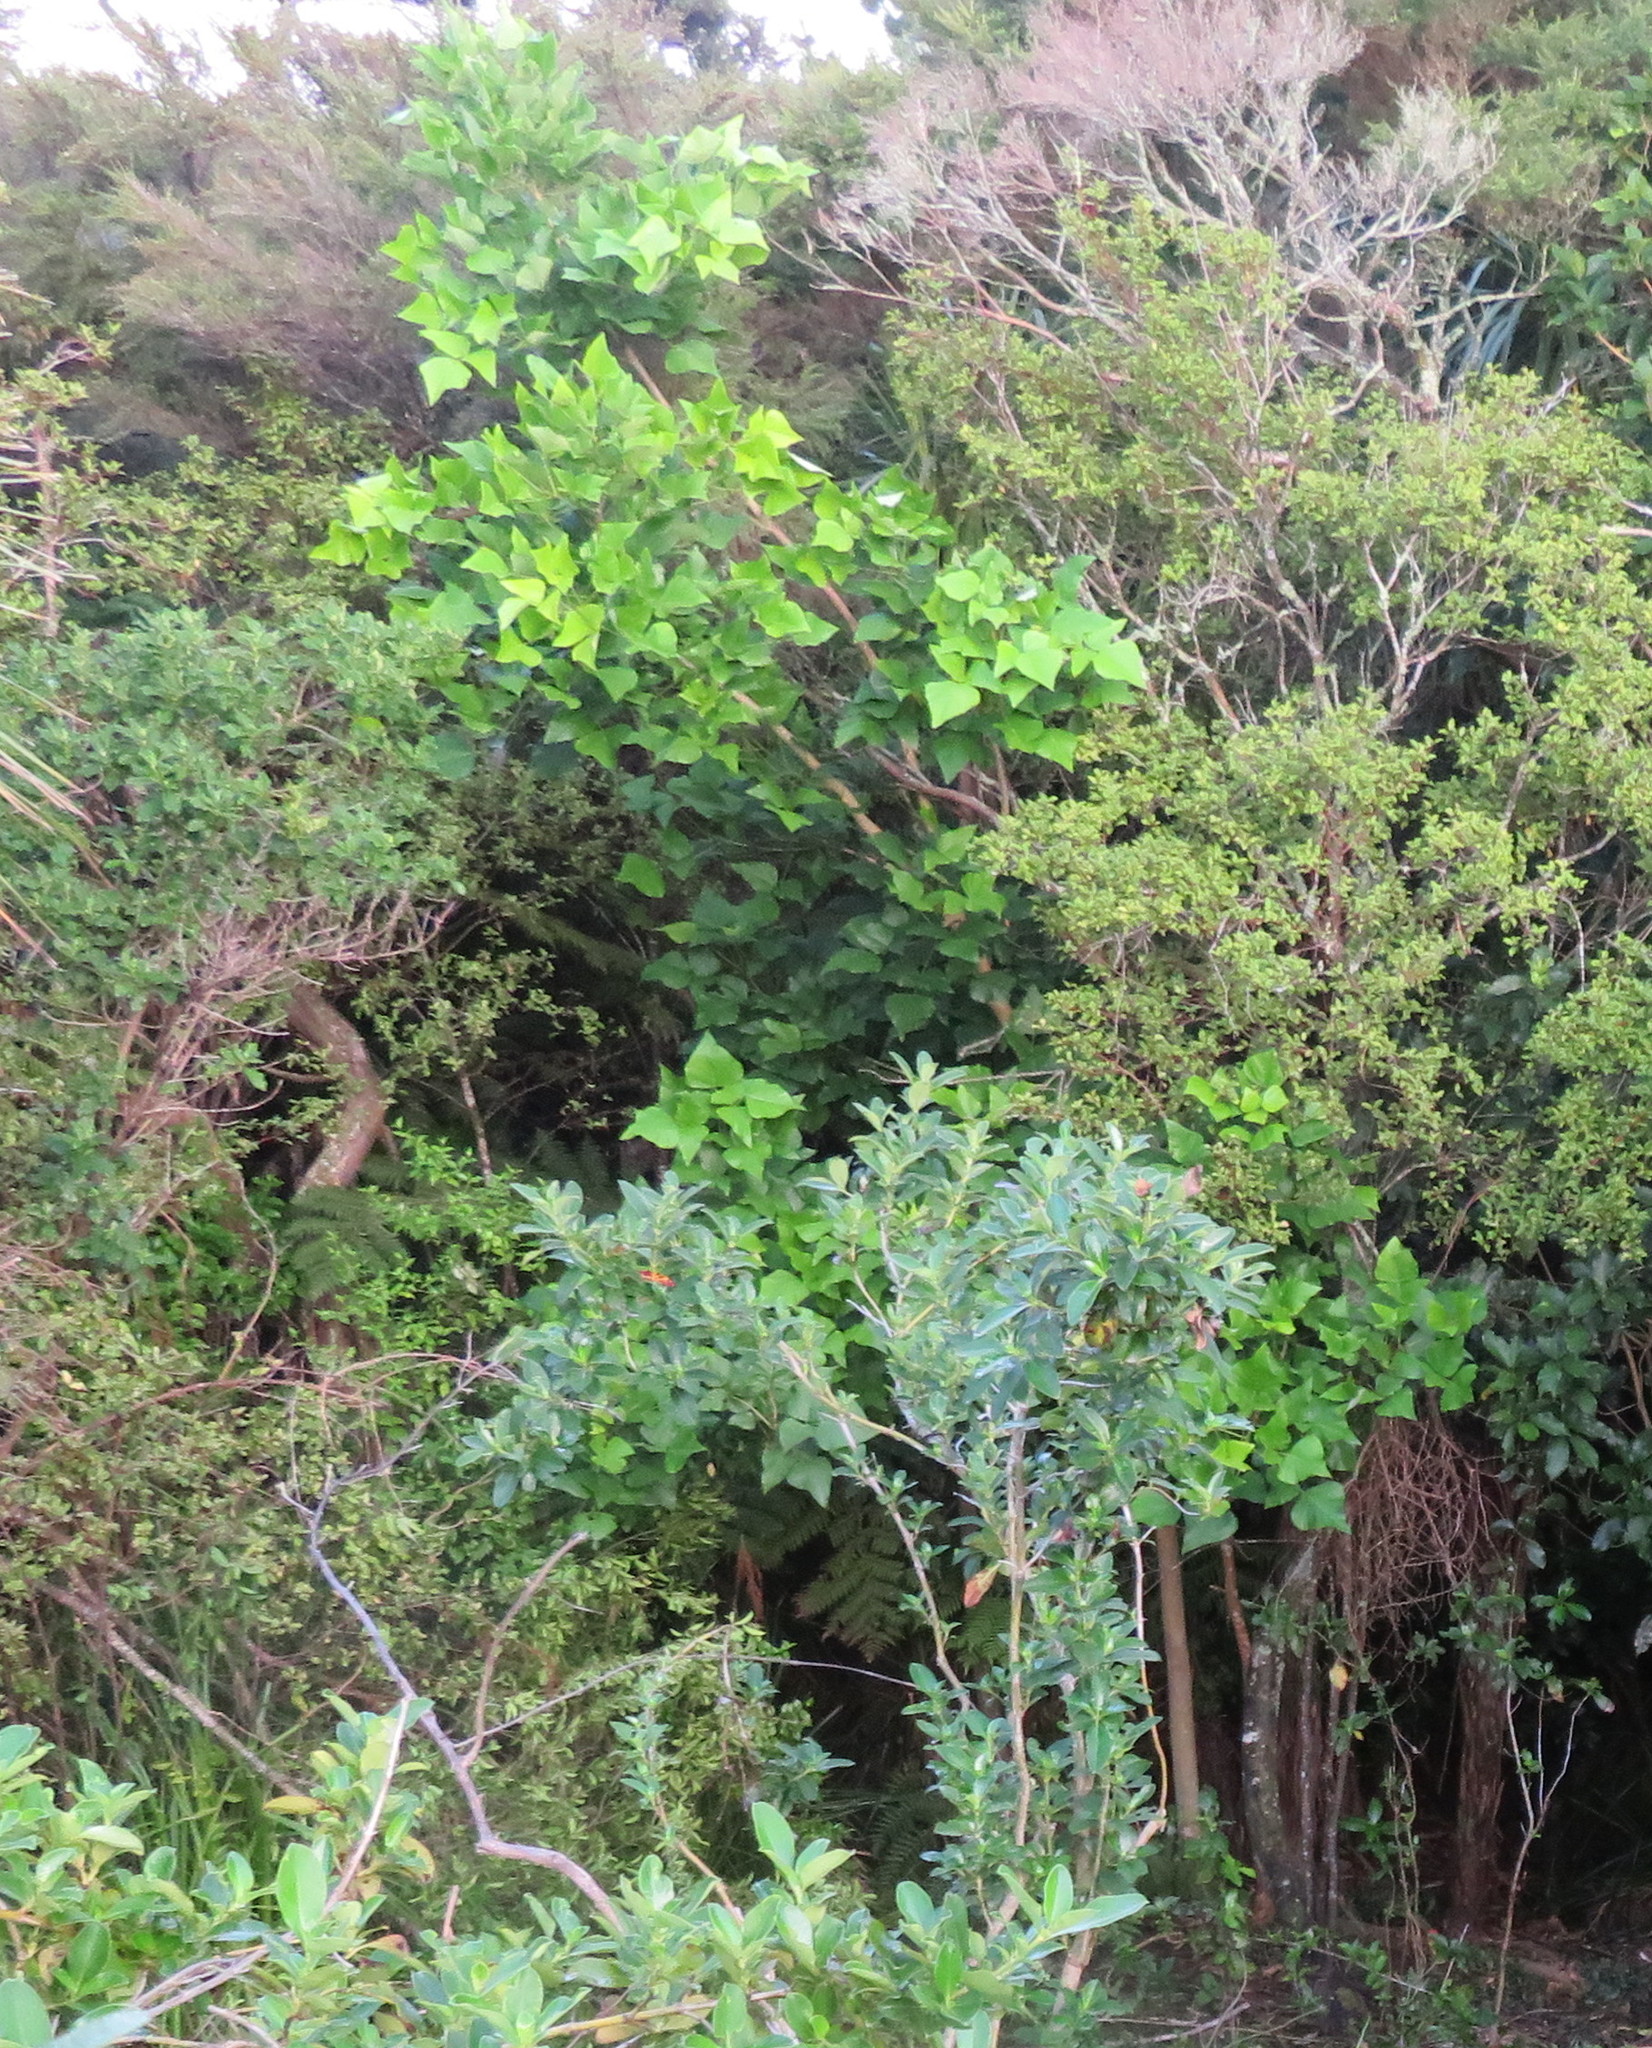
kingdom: Plantae
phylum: Tracheophyta
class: Magnoliopsida
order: Ericales
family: Primulaceae
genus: Myrsine
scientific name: Myrsine australis
